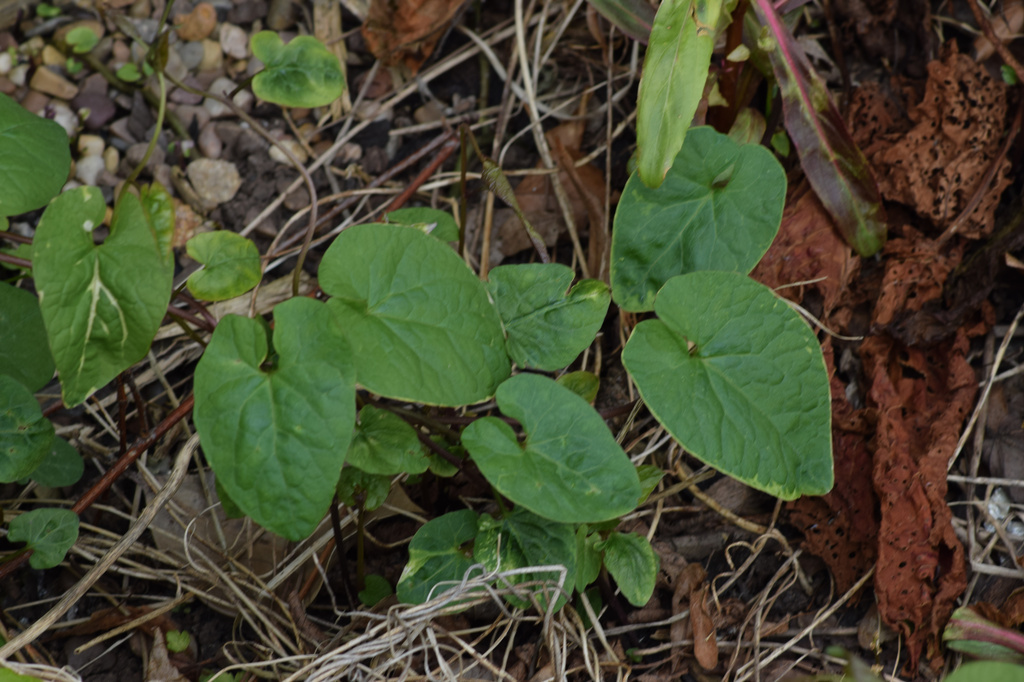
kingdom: Plantae
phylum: Tracheophyta
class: Magnoliopsida
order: Solanales
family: Convolvulaceae
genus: Calystegia
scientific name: Calystegia
